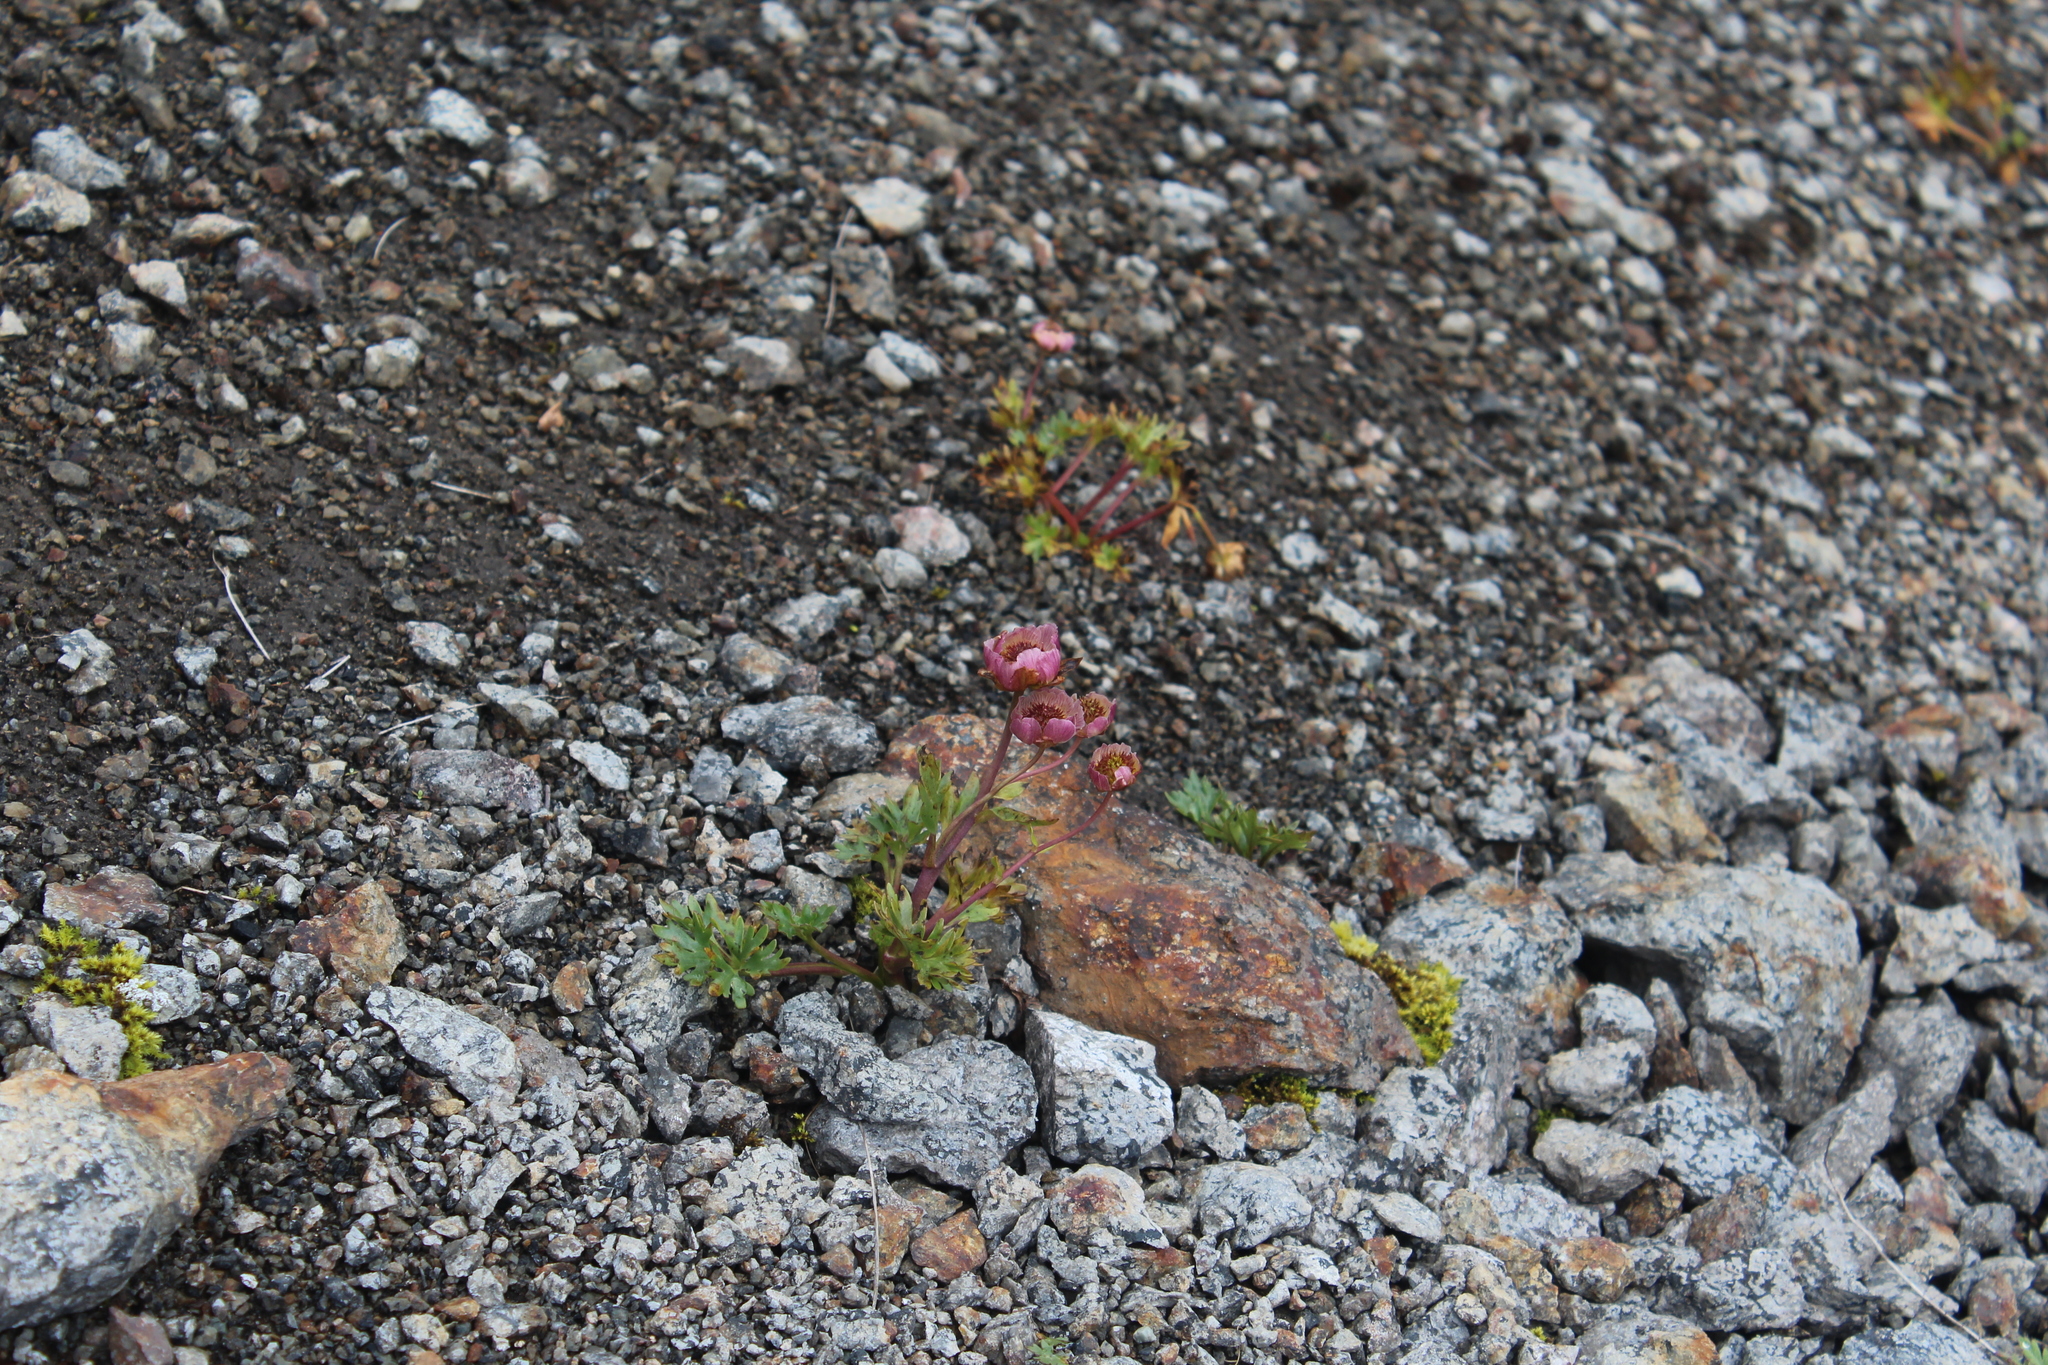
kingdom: Plantae
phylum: Tracheophyta
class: Magnoliopsida
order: Ranunculales
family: Ranunculaceae
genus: Ranunculus
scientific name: Ranunculus glacialis
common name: Glacier buttercup
